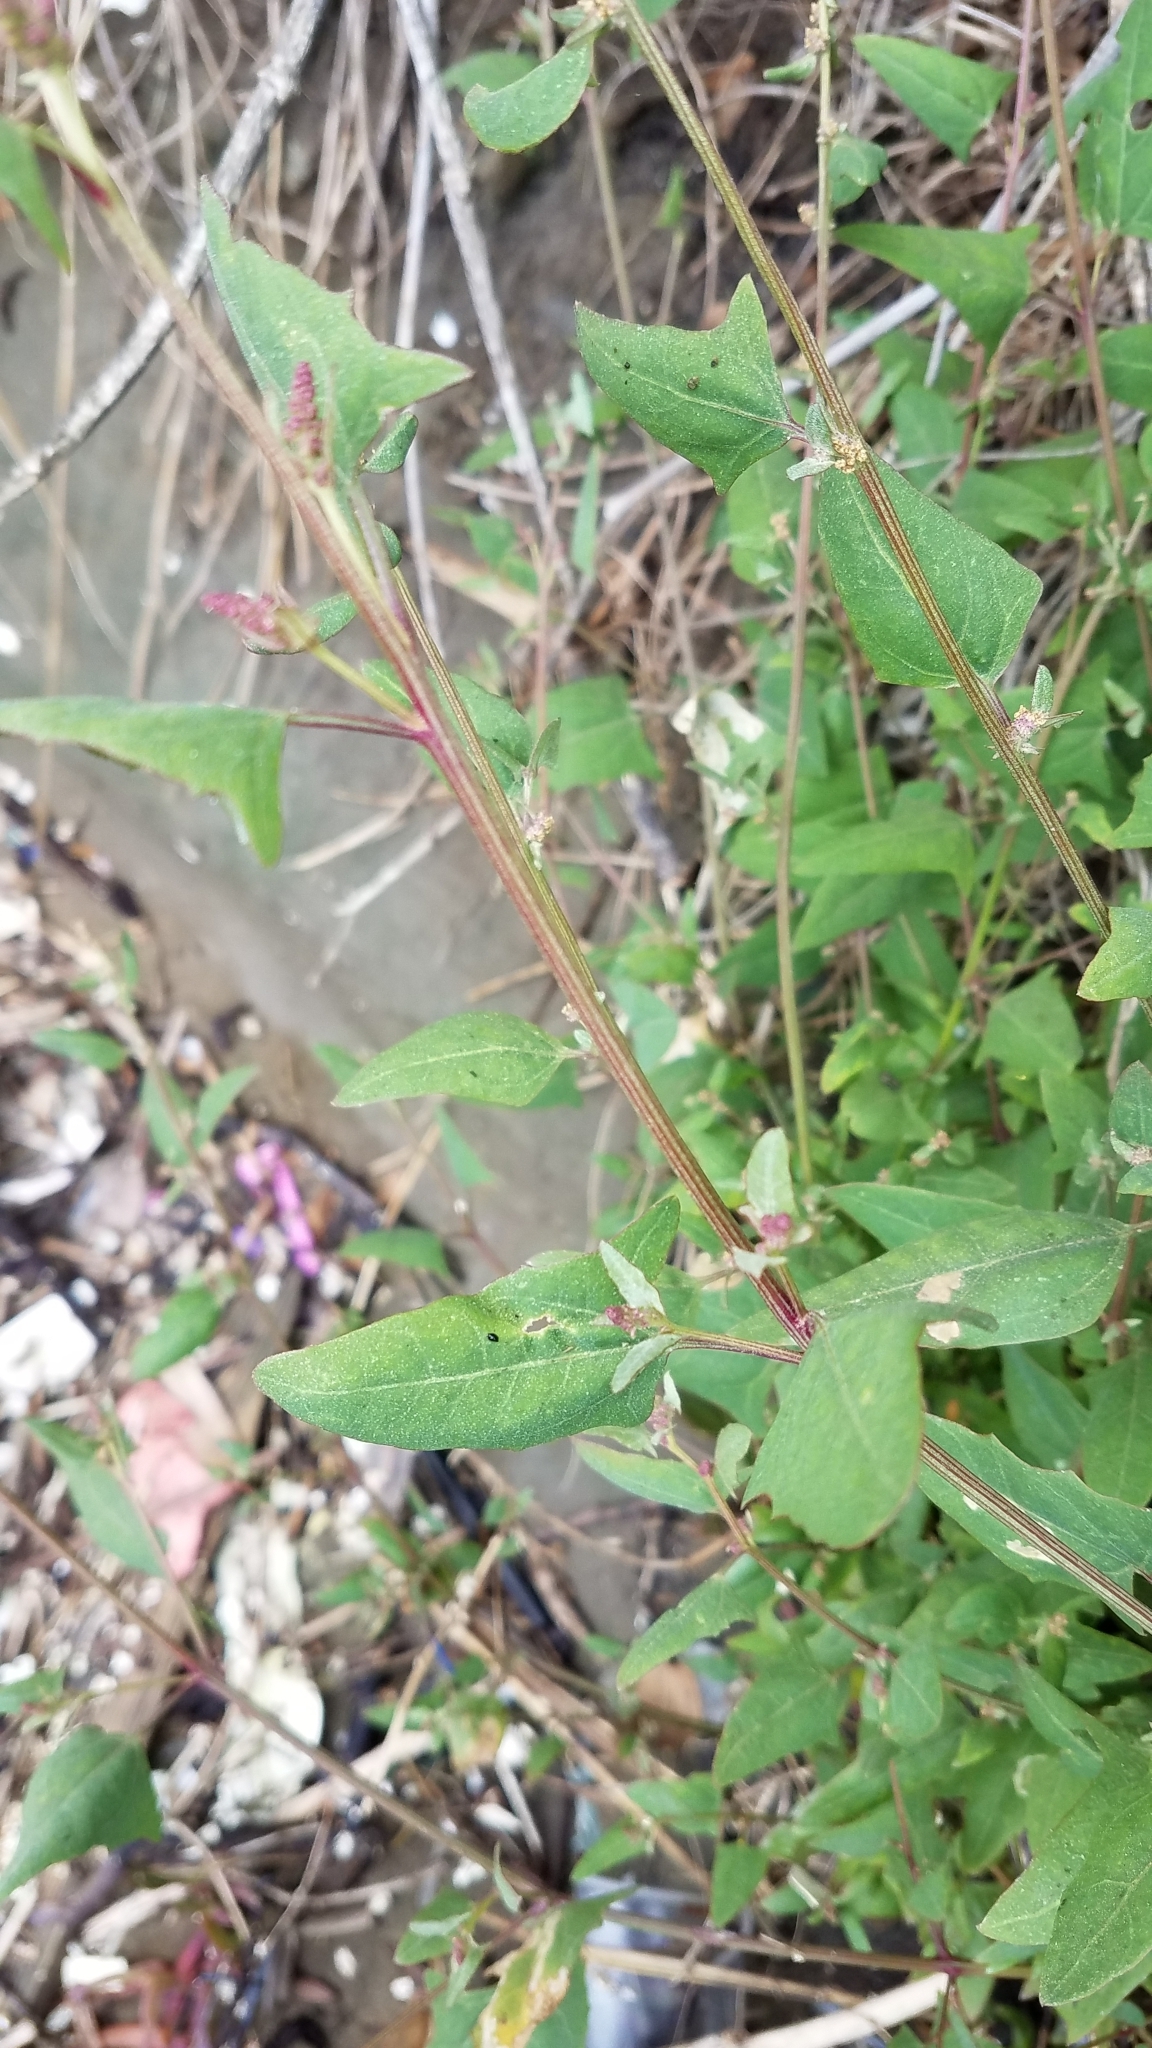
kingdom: Plantae
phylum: Tracheophyta
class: Magnoliopsida
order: Caryophyllales
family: Amaranthaceae
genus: Atriplex
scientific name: Atriplex prostrata
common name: Spear-leaved orache
